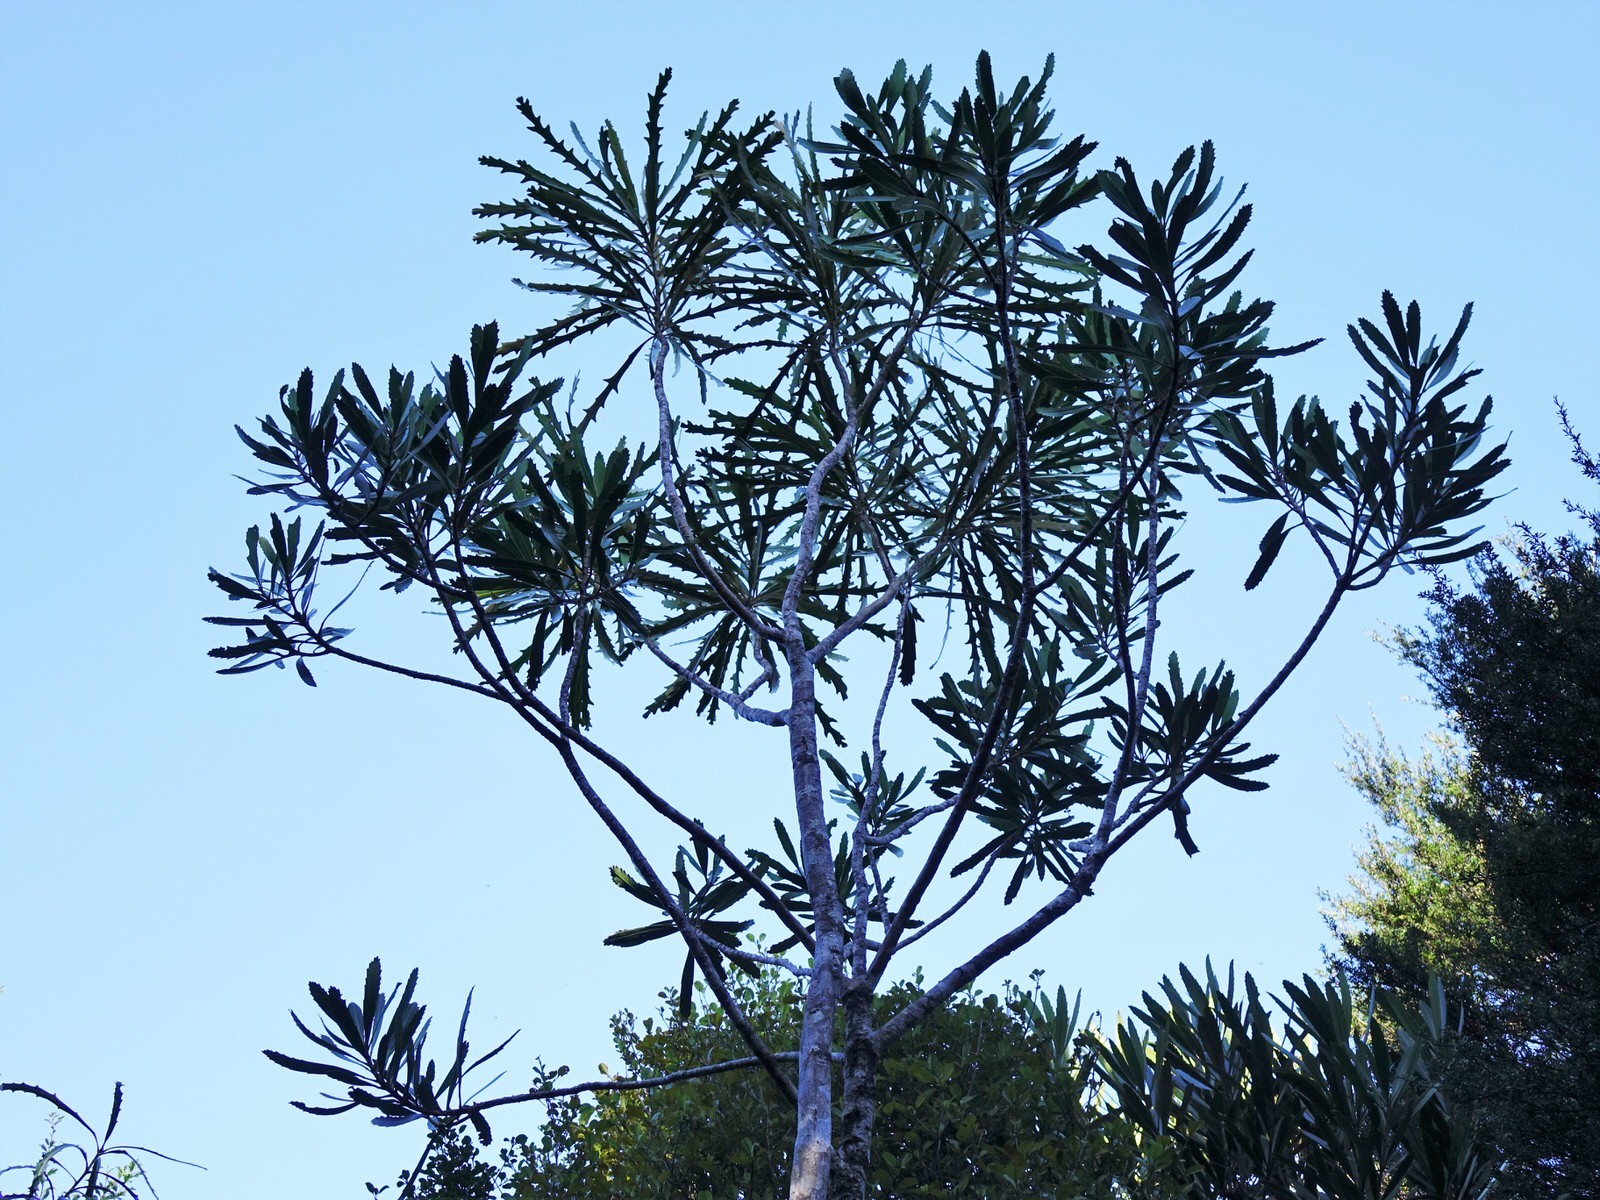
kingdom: Plantae
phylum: Tracheophyta
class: Magnoliopsida
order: Apiales
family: Araliaceae
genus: Pseudopanax
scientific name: Pseudopanax crassifolius
